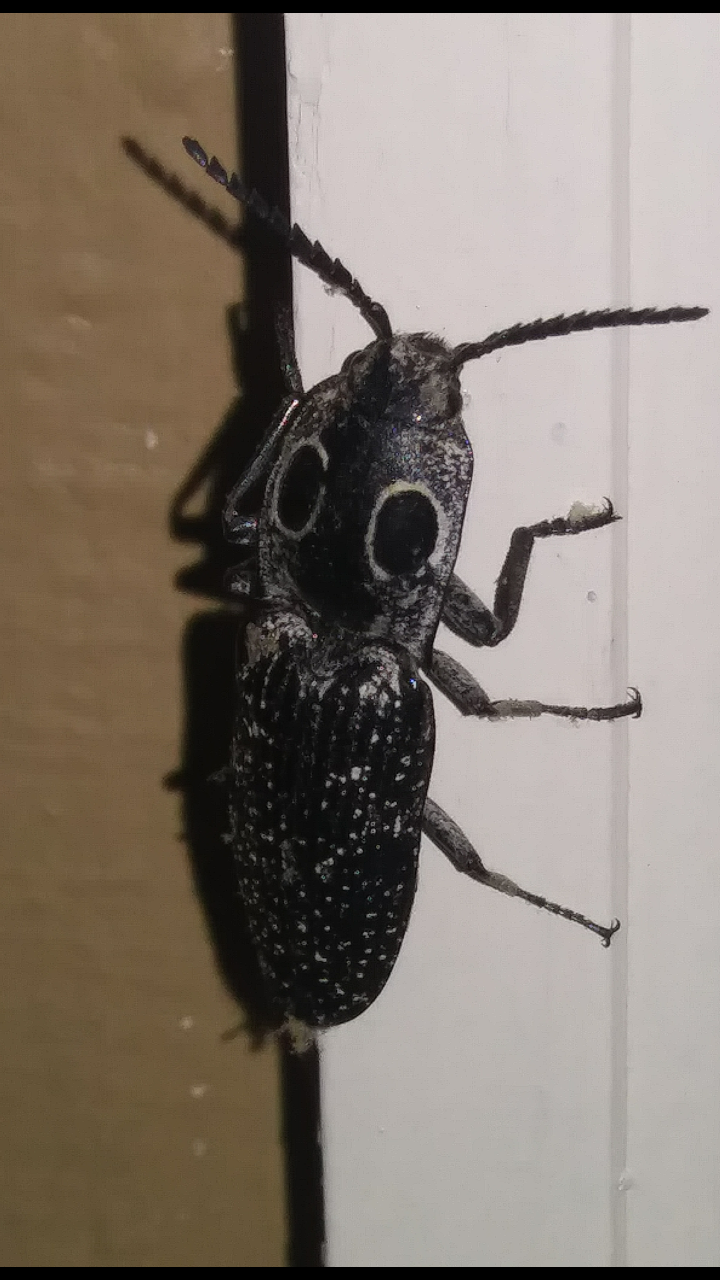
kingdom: Animalia
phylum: Arthropoda
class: Insecta
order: Coleoptera
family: Elateridae
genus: Alaus
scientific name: Alaus oculatus
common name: Eastern eyed click beetle
